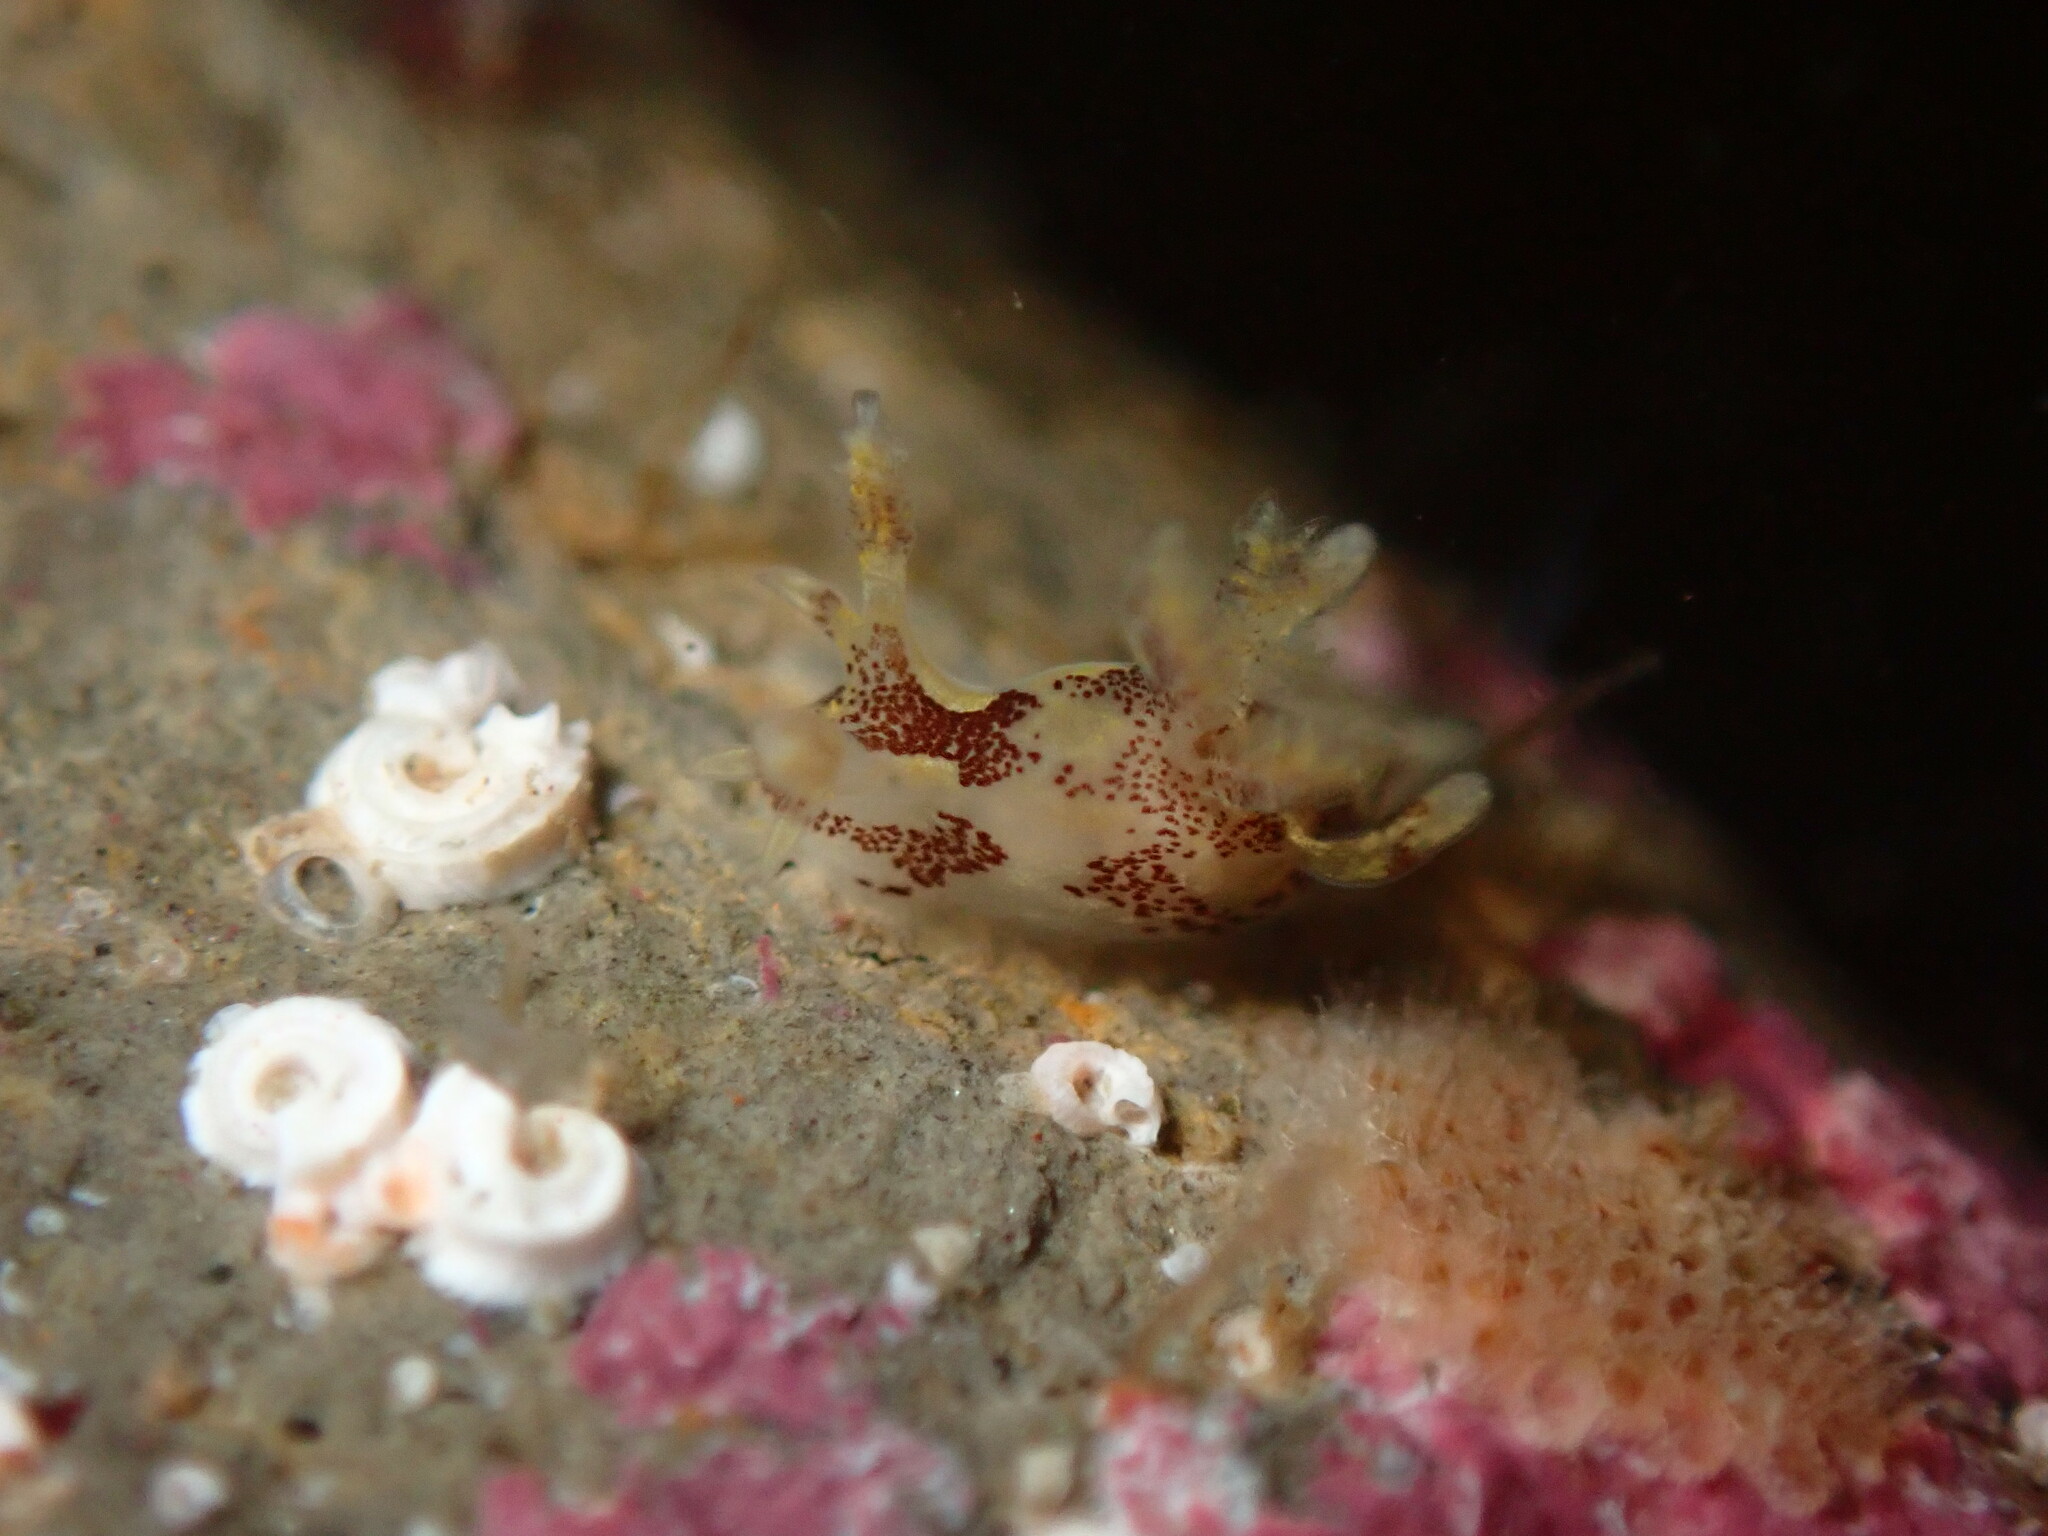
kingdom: Animalia
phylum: Mollusca
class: Gastropoda
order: Nudibranchia
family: Goniodorididae
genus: Ancula
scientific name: Ancula lentiginosa
